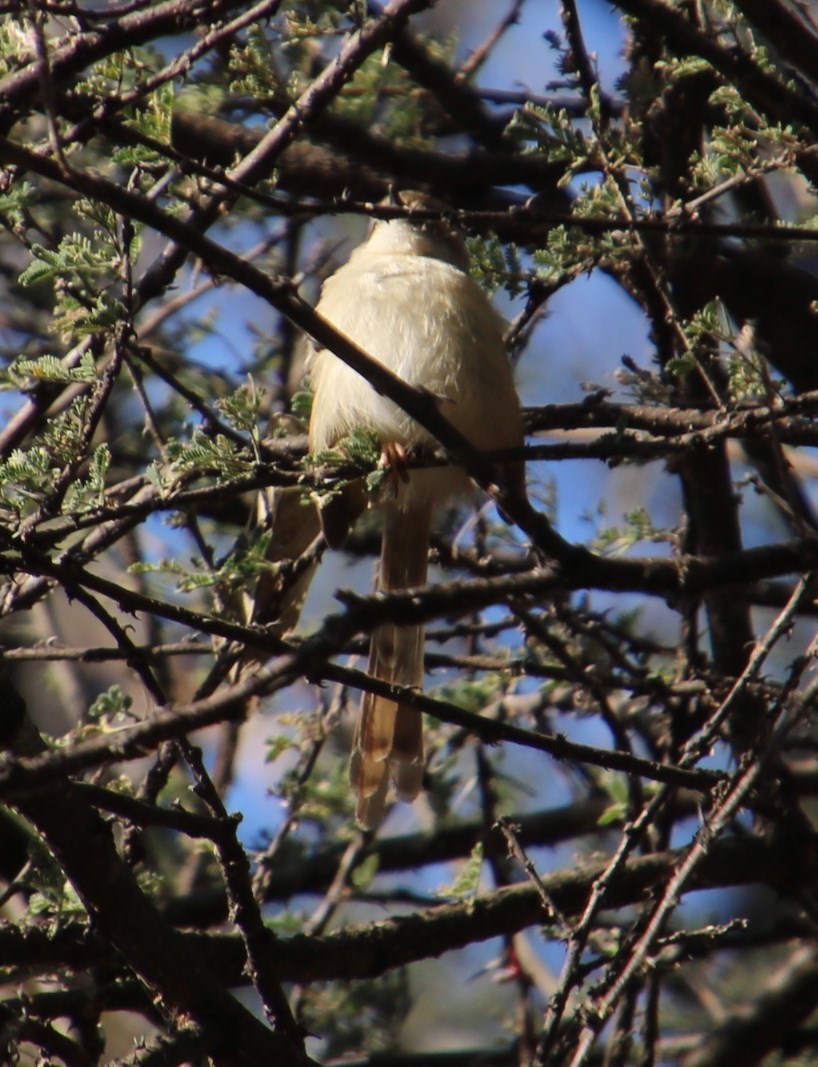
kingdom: Animalia
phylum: Chordata
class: Aves
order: Passeriformes
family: Cisticolidae
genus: Prinia
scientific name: Prinia subflava
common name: Tawny-flanked prinia
